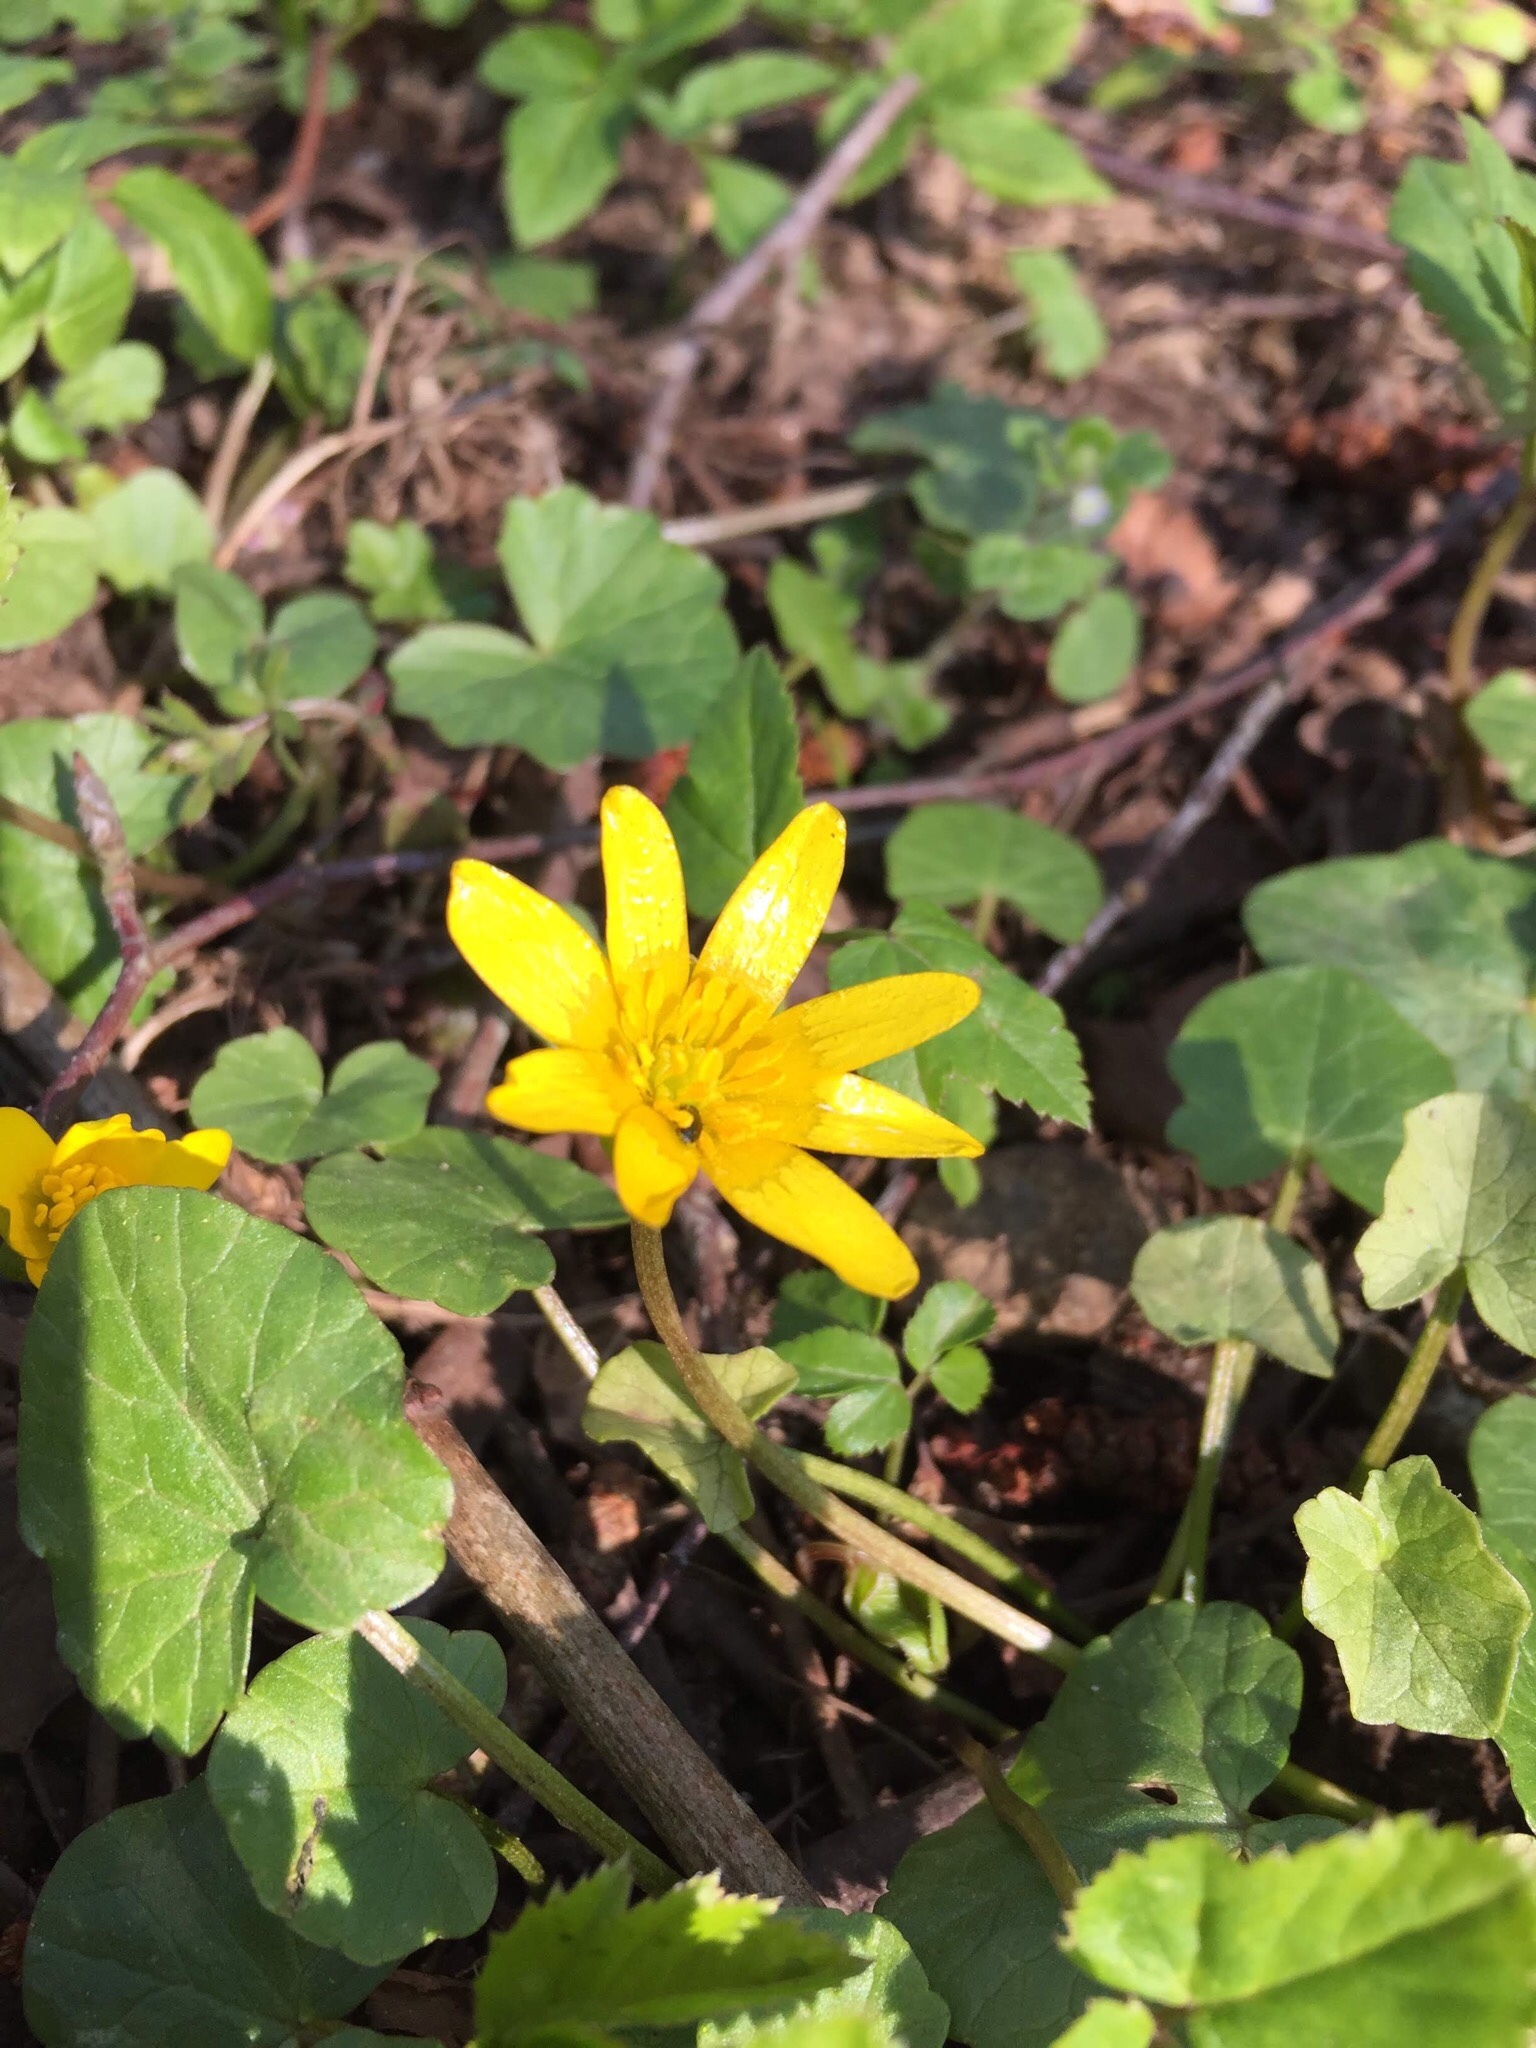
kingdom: Plantae
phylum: Tracheophyta
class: Magnoliopsida
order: Ranunculales
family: Ranunculaceae
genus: Ficaria
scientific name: Ficaria verna
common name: Lesser celandine
